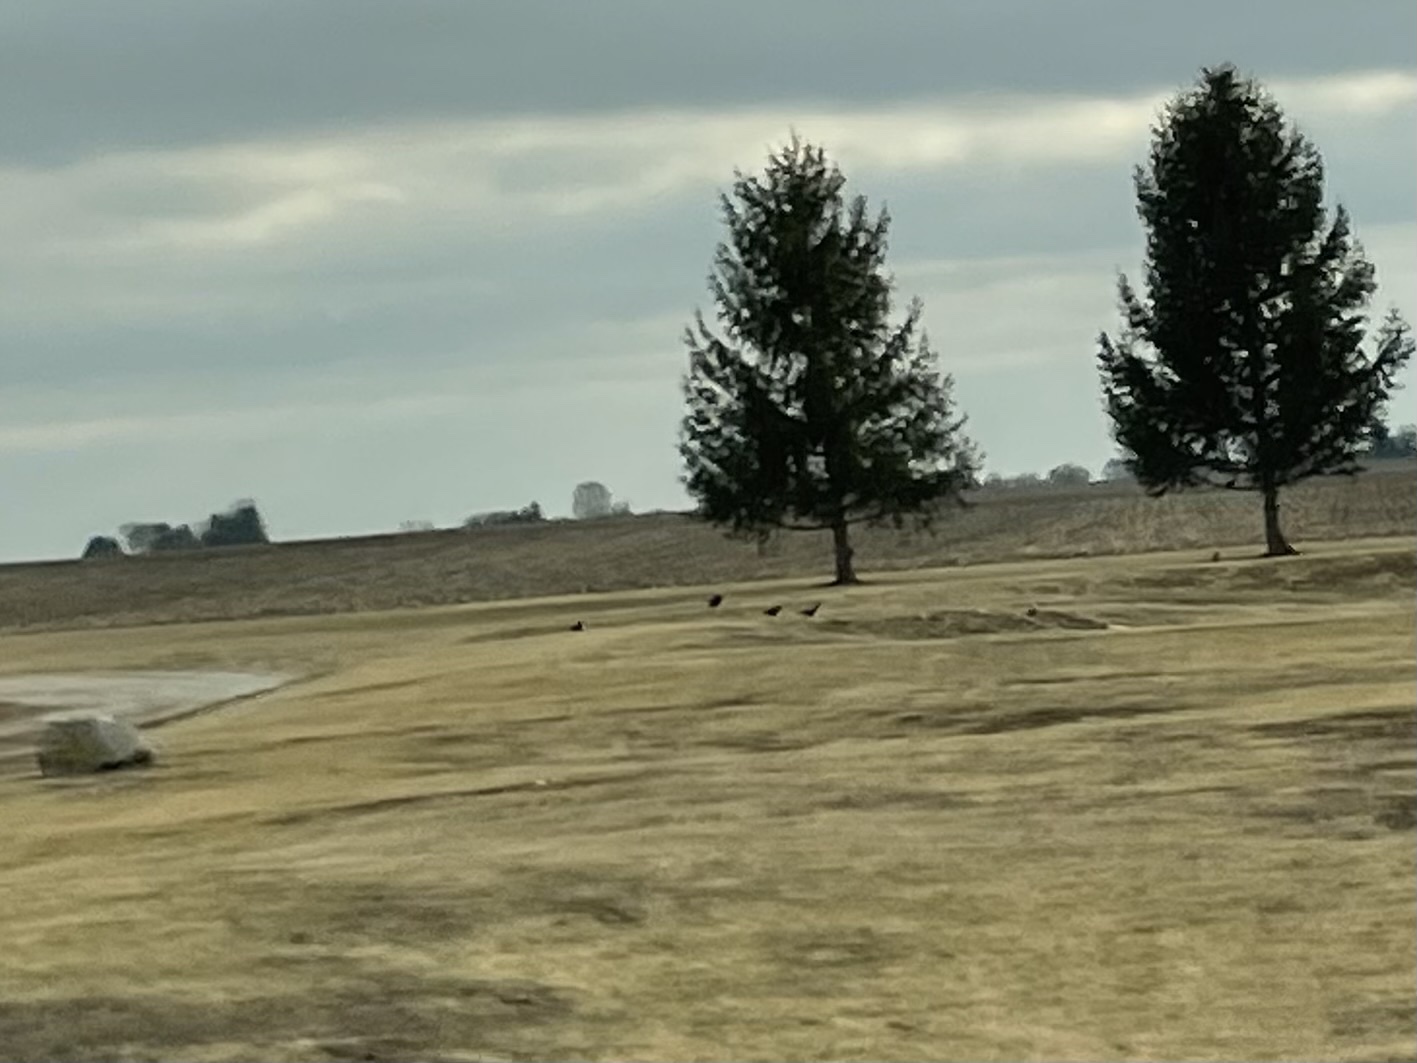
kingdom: Animalia
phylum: Chordata
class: Aves
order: Passeriformes
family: Corvidae
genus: Corvus
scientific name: Corvus brachyrhynchos
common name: American crow
